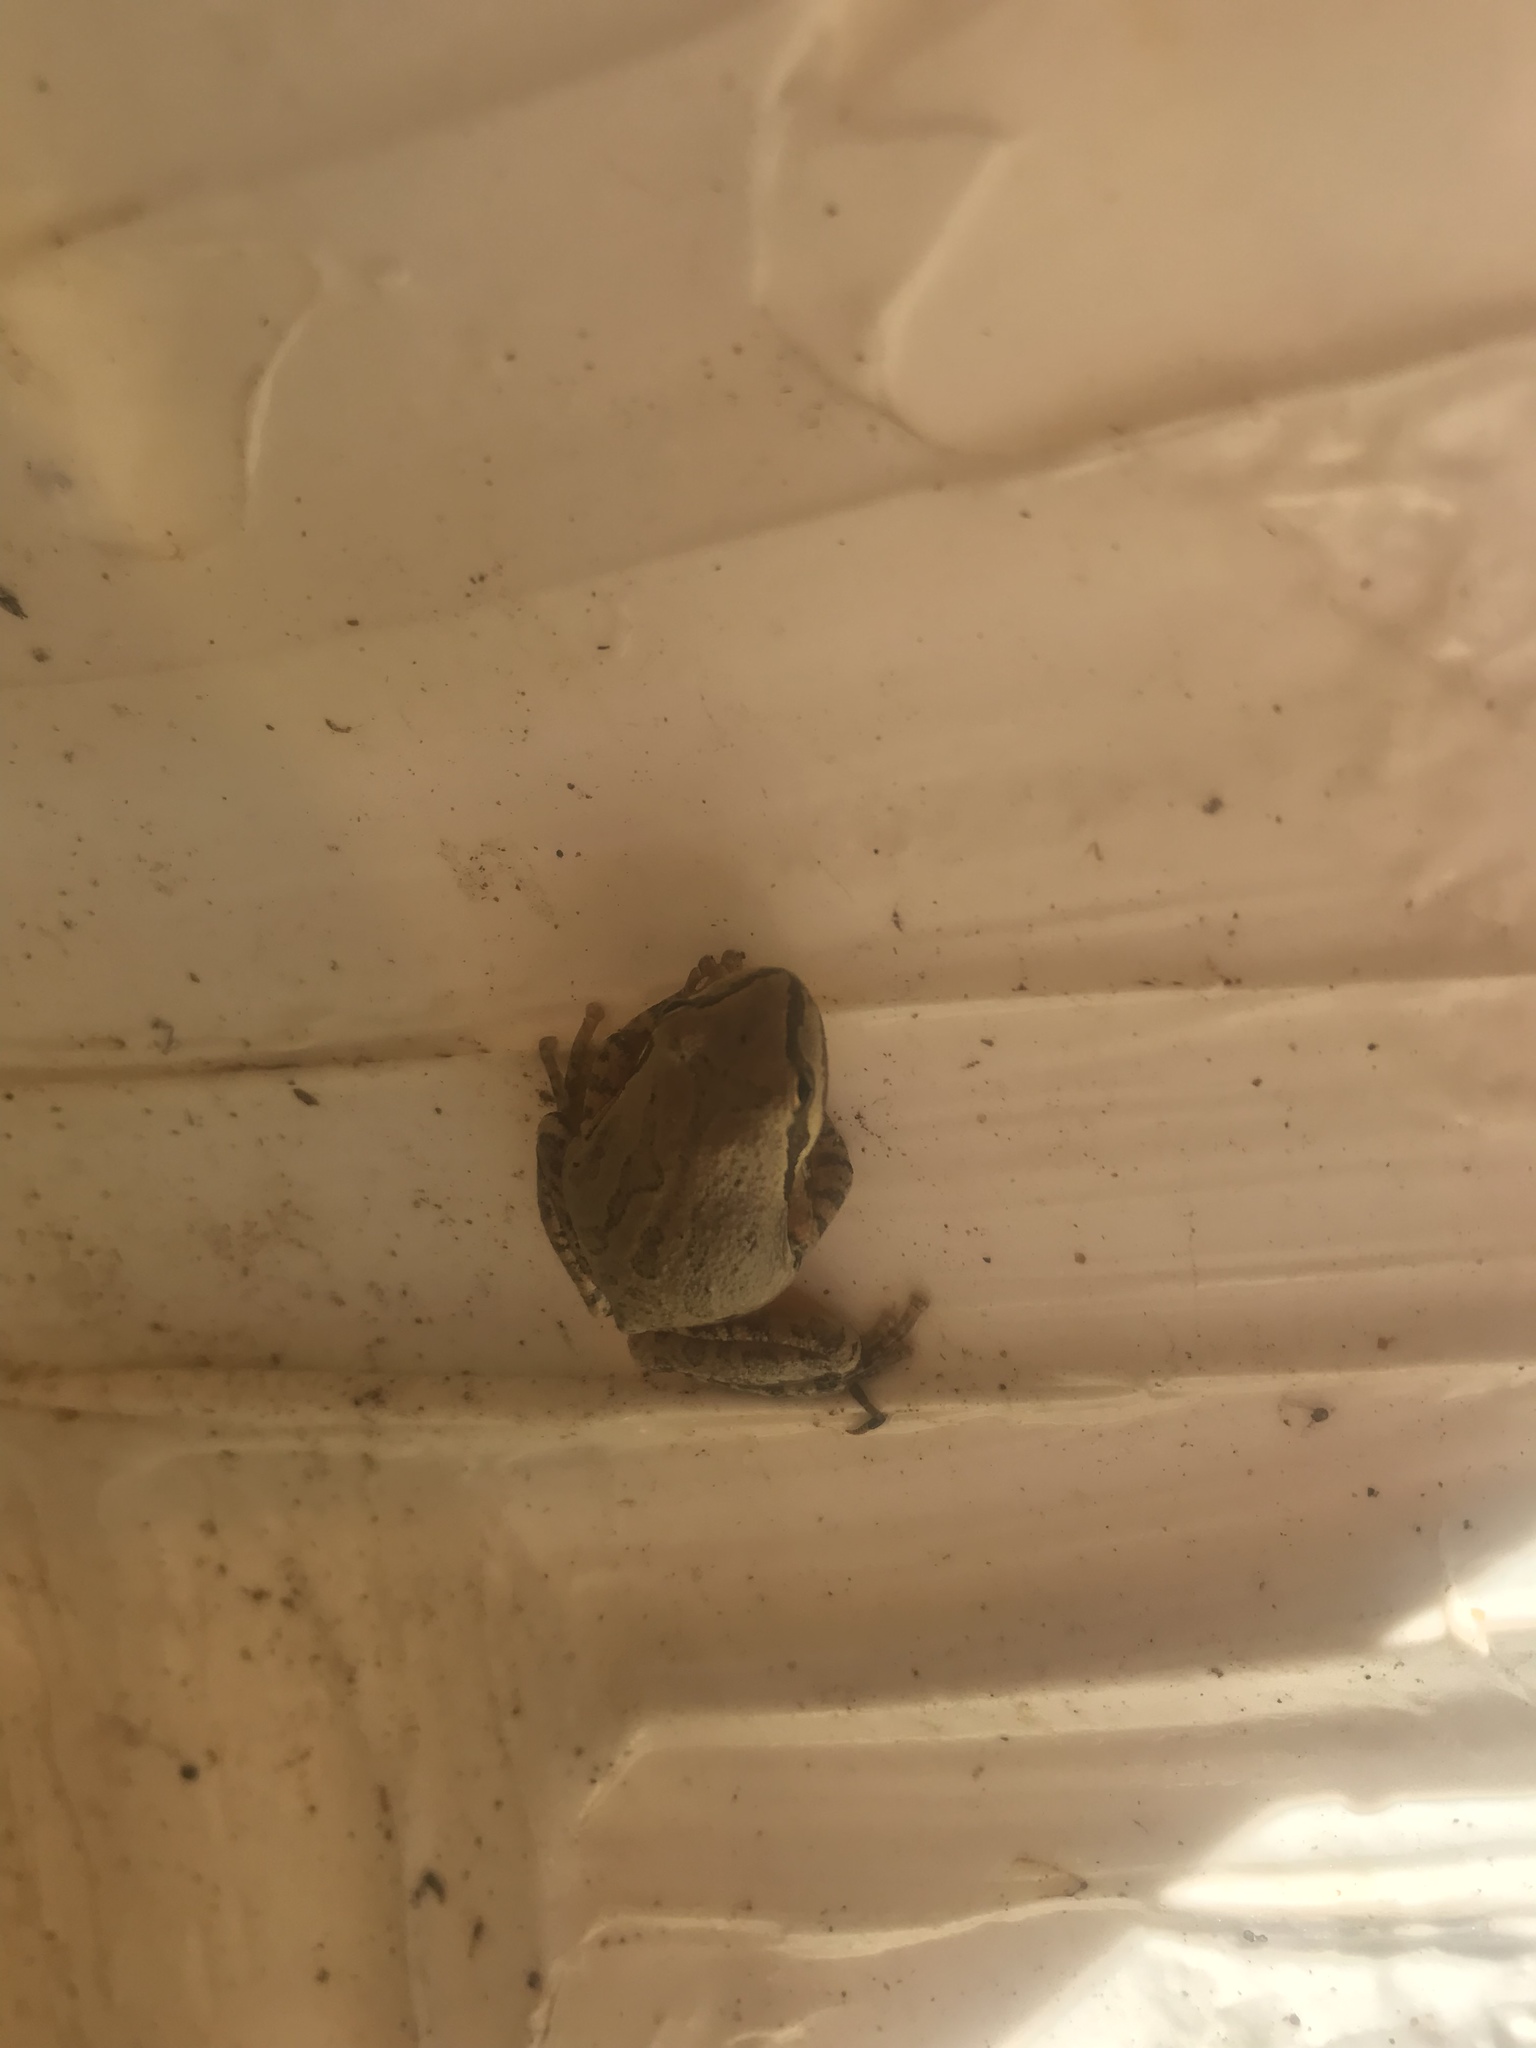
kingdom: Animalia
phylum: Chordata
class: Amphibia
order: Anura
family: Hylidae
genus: Pseudacris
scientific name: Pseudacris regilla
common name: Pacific chorus frog
